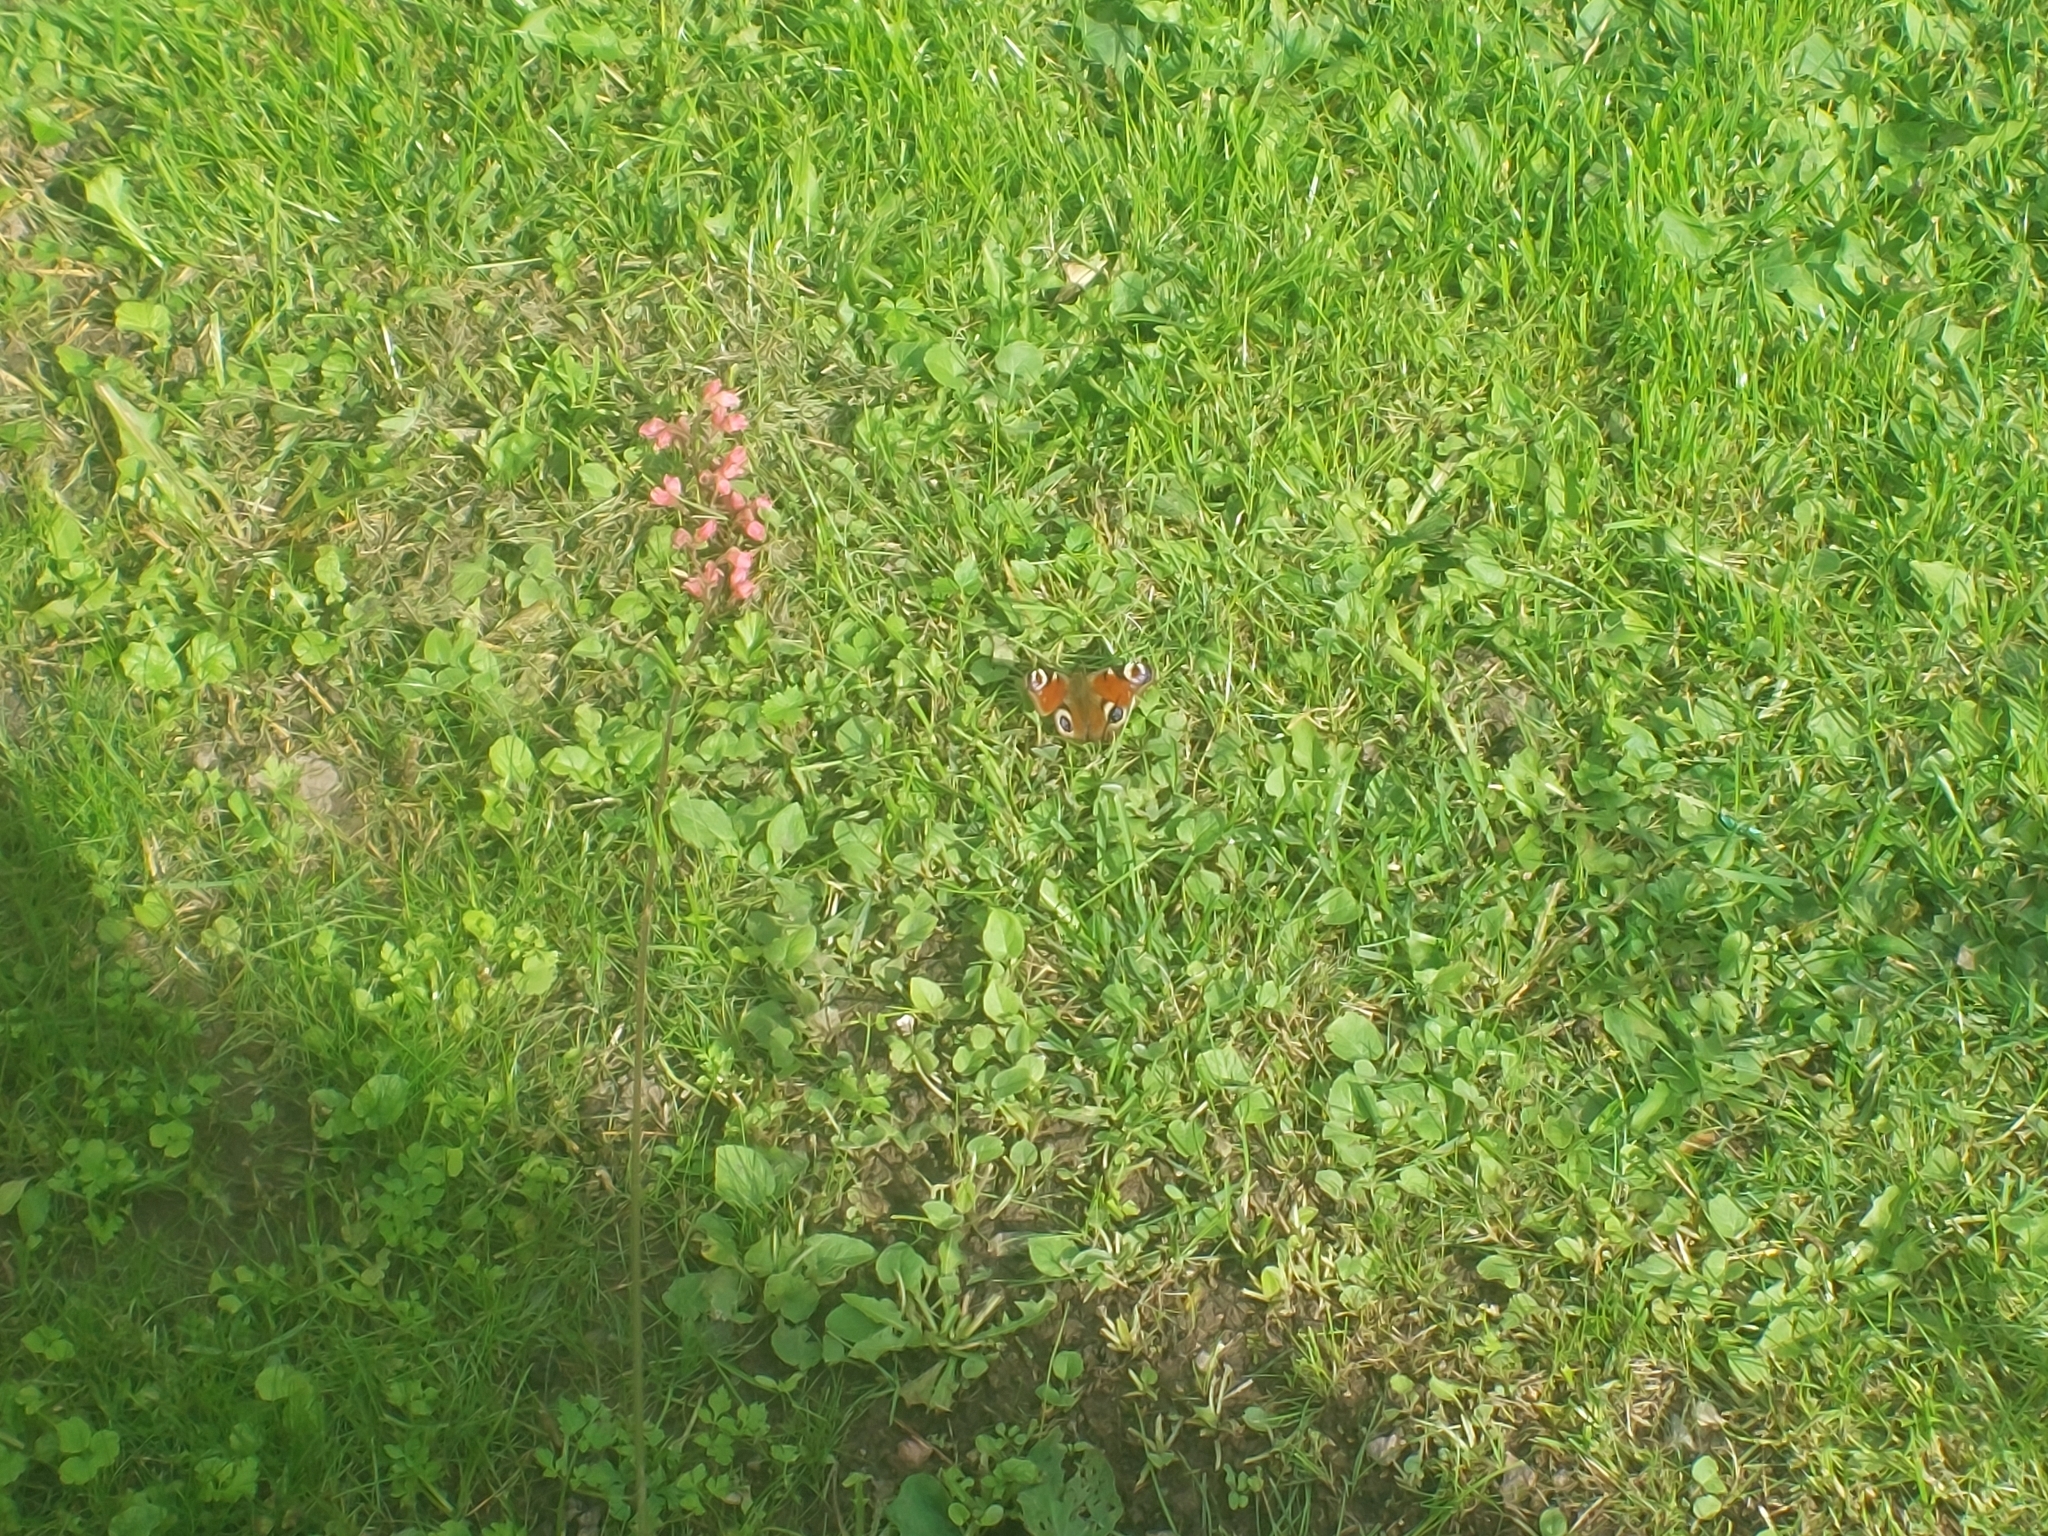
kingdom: Animalia
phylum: Arthropoda
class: Insecta
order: Lepidoptera
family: Nymphalidae
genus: Aglais
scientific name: Aglais io
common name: Peacock
